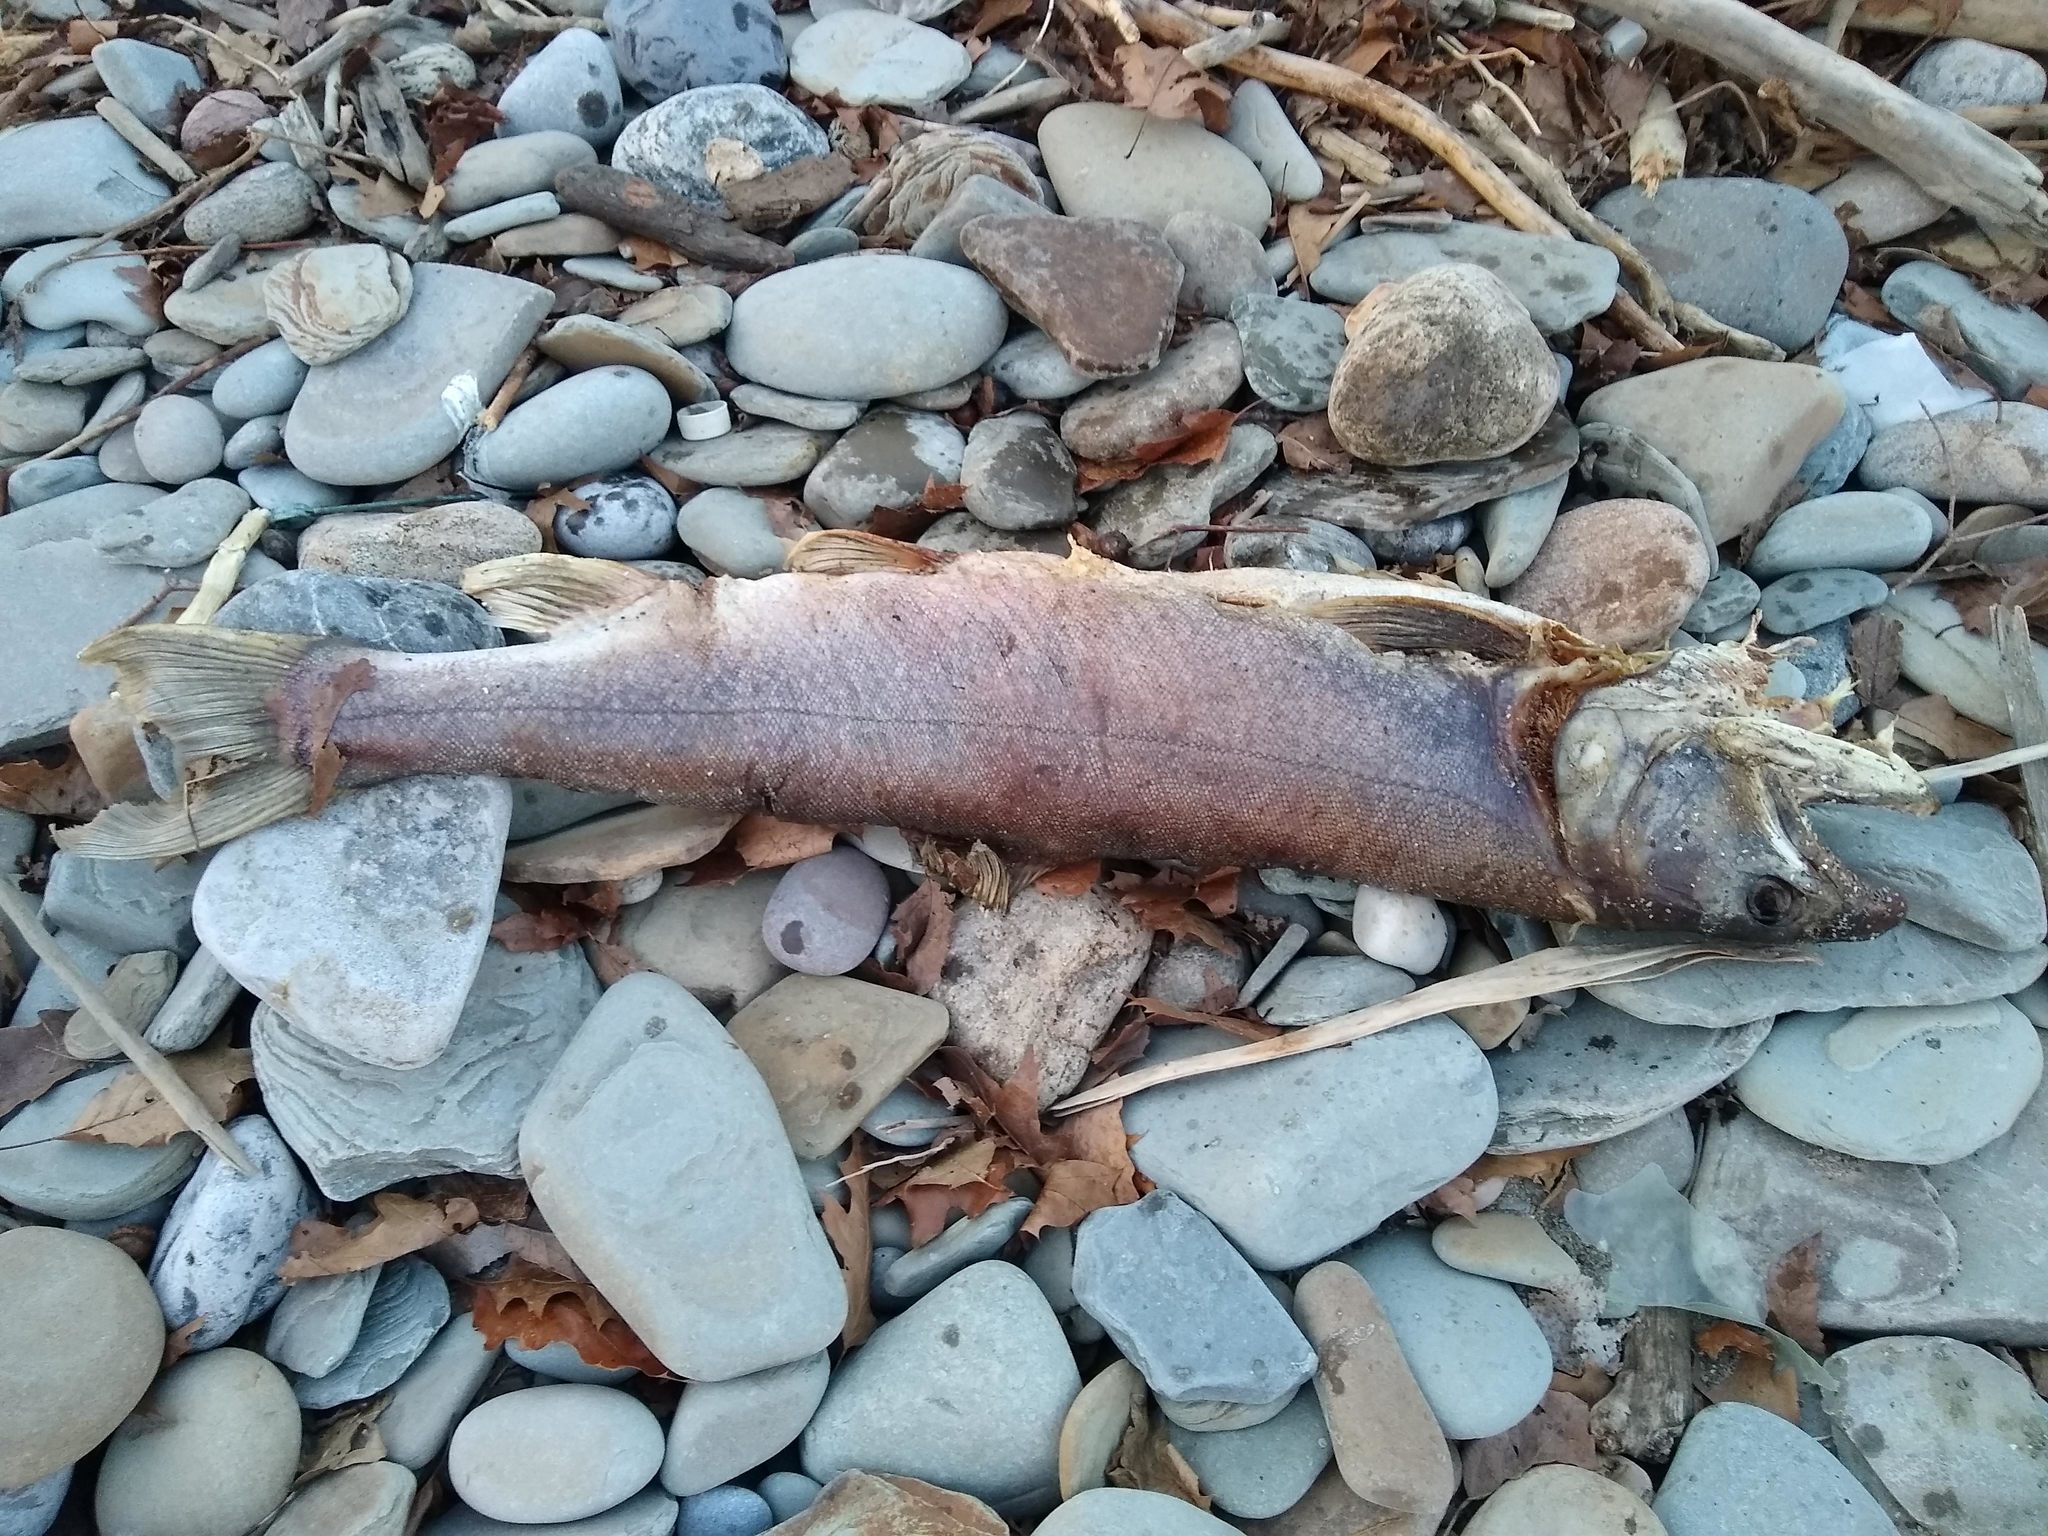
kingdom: Animalia
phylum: Chordata
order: Salmoniformes
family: Salmonidae
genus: Salvelinus
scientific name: Salvelinus namaycush
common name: American lake charr
